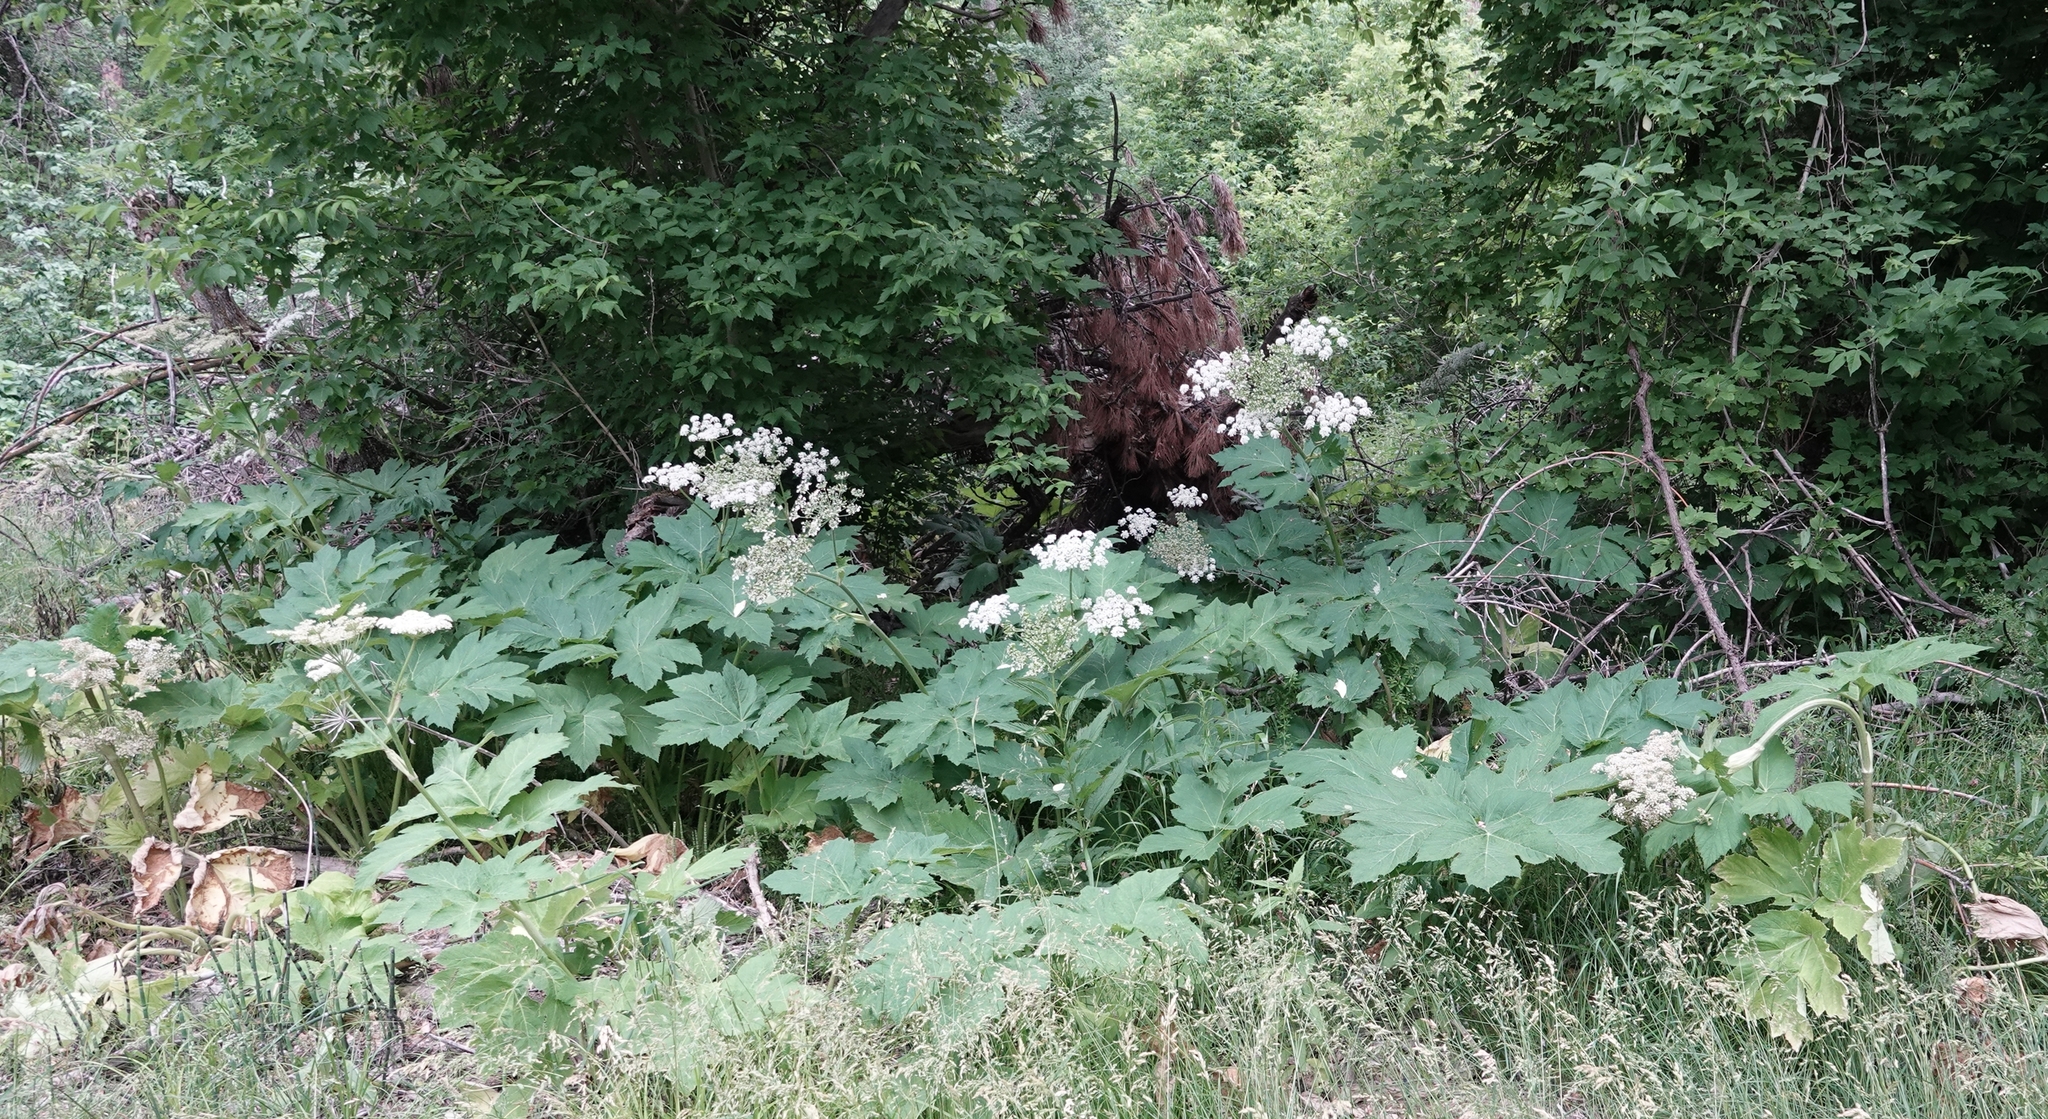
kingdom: Plantae
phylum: Tracheophyta
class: Magnoliopsida
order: Apiales
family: Apiaceae
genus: Heracleum
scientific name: Heracleum maximum
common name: American cow parsnip
